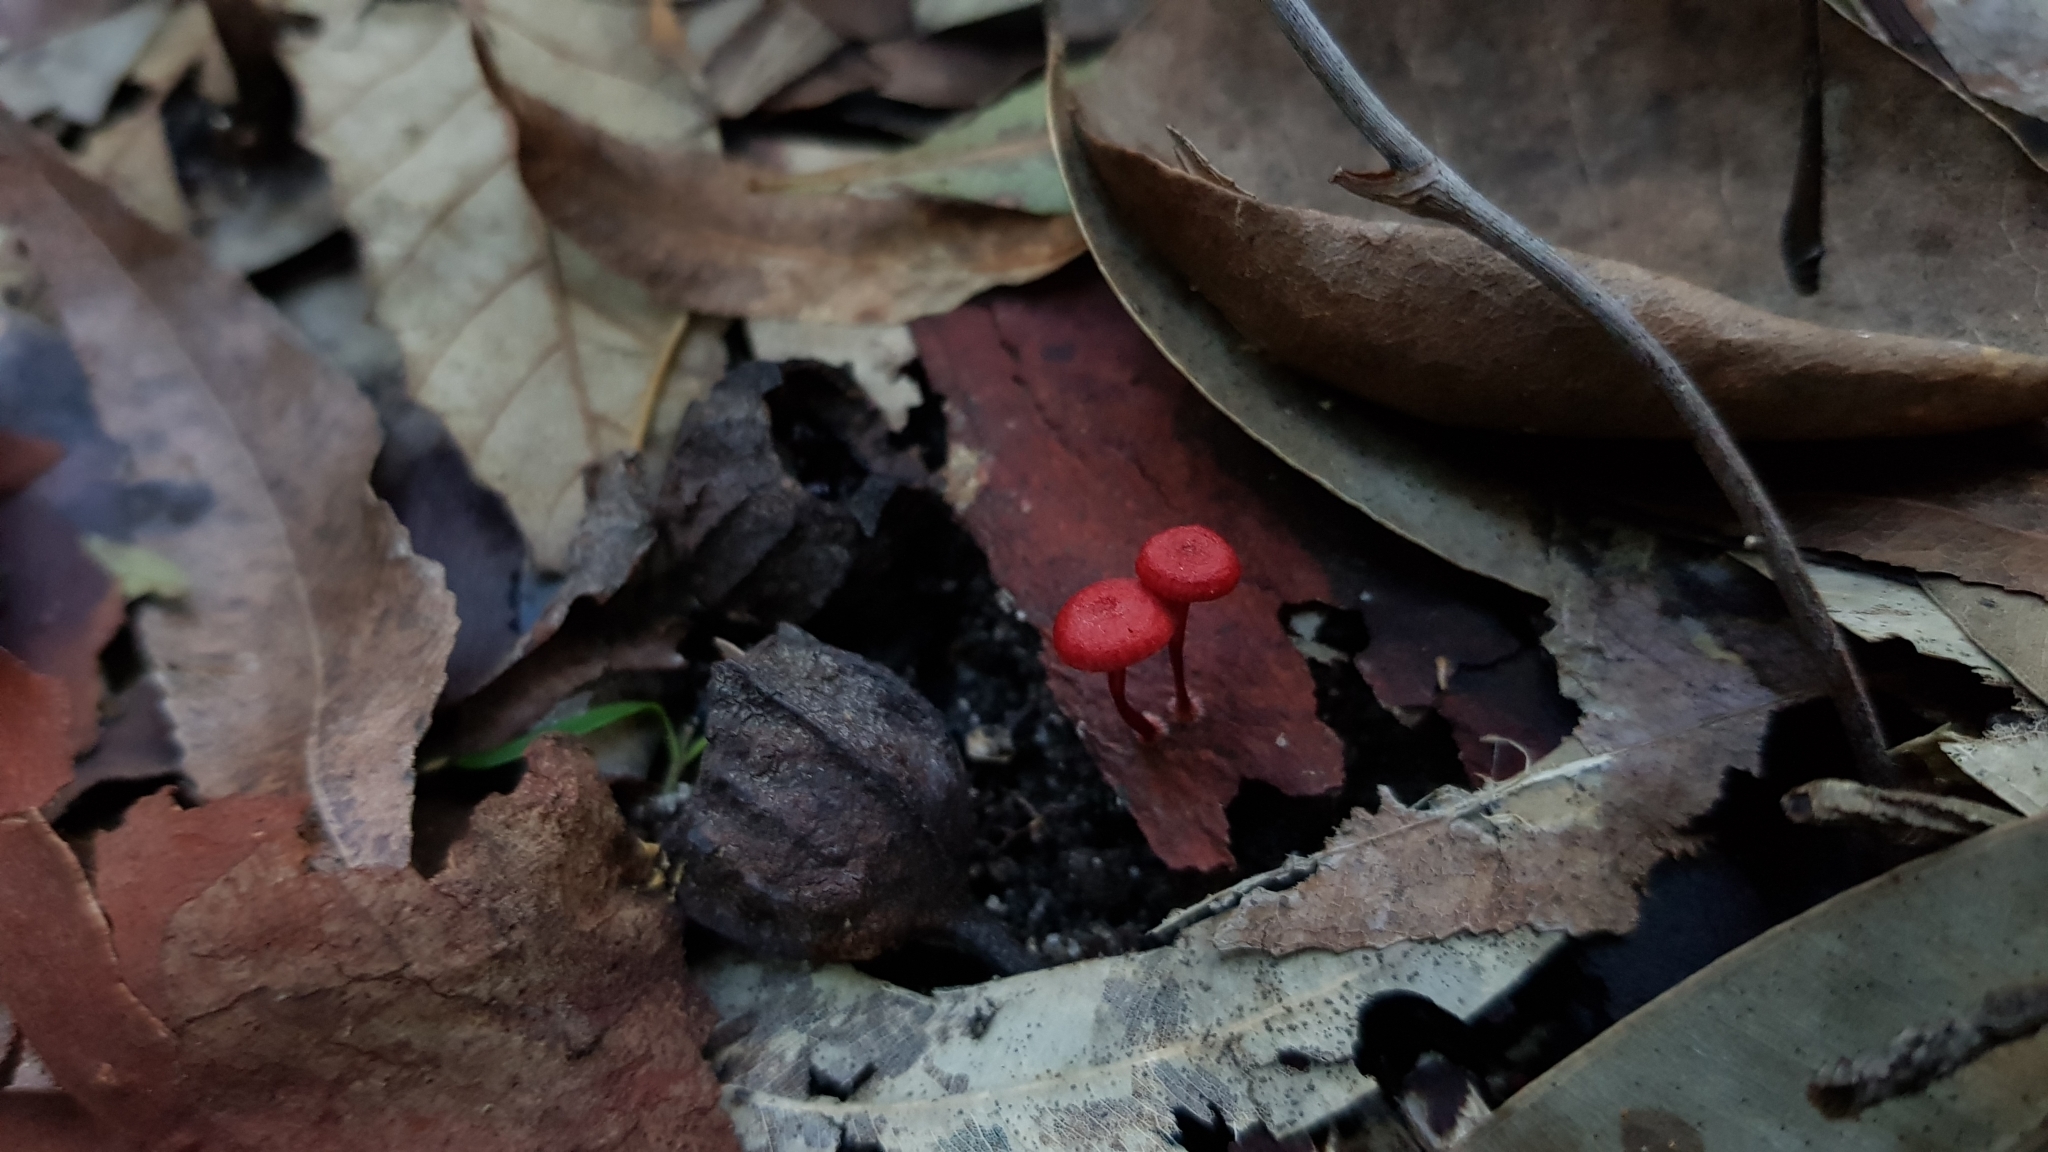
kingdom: Fungi
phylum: Basidiomycota
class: Agaricomycetes
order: Agaricales
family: Mycenaceae
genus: Cruentomycena
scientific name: Cruentomycena viscidocruenta
